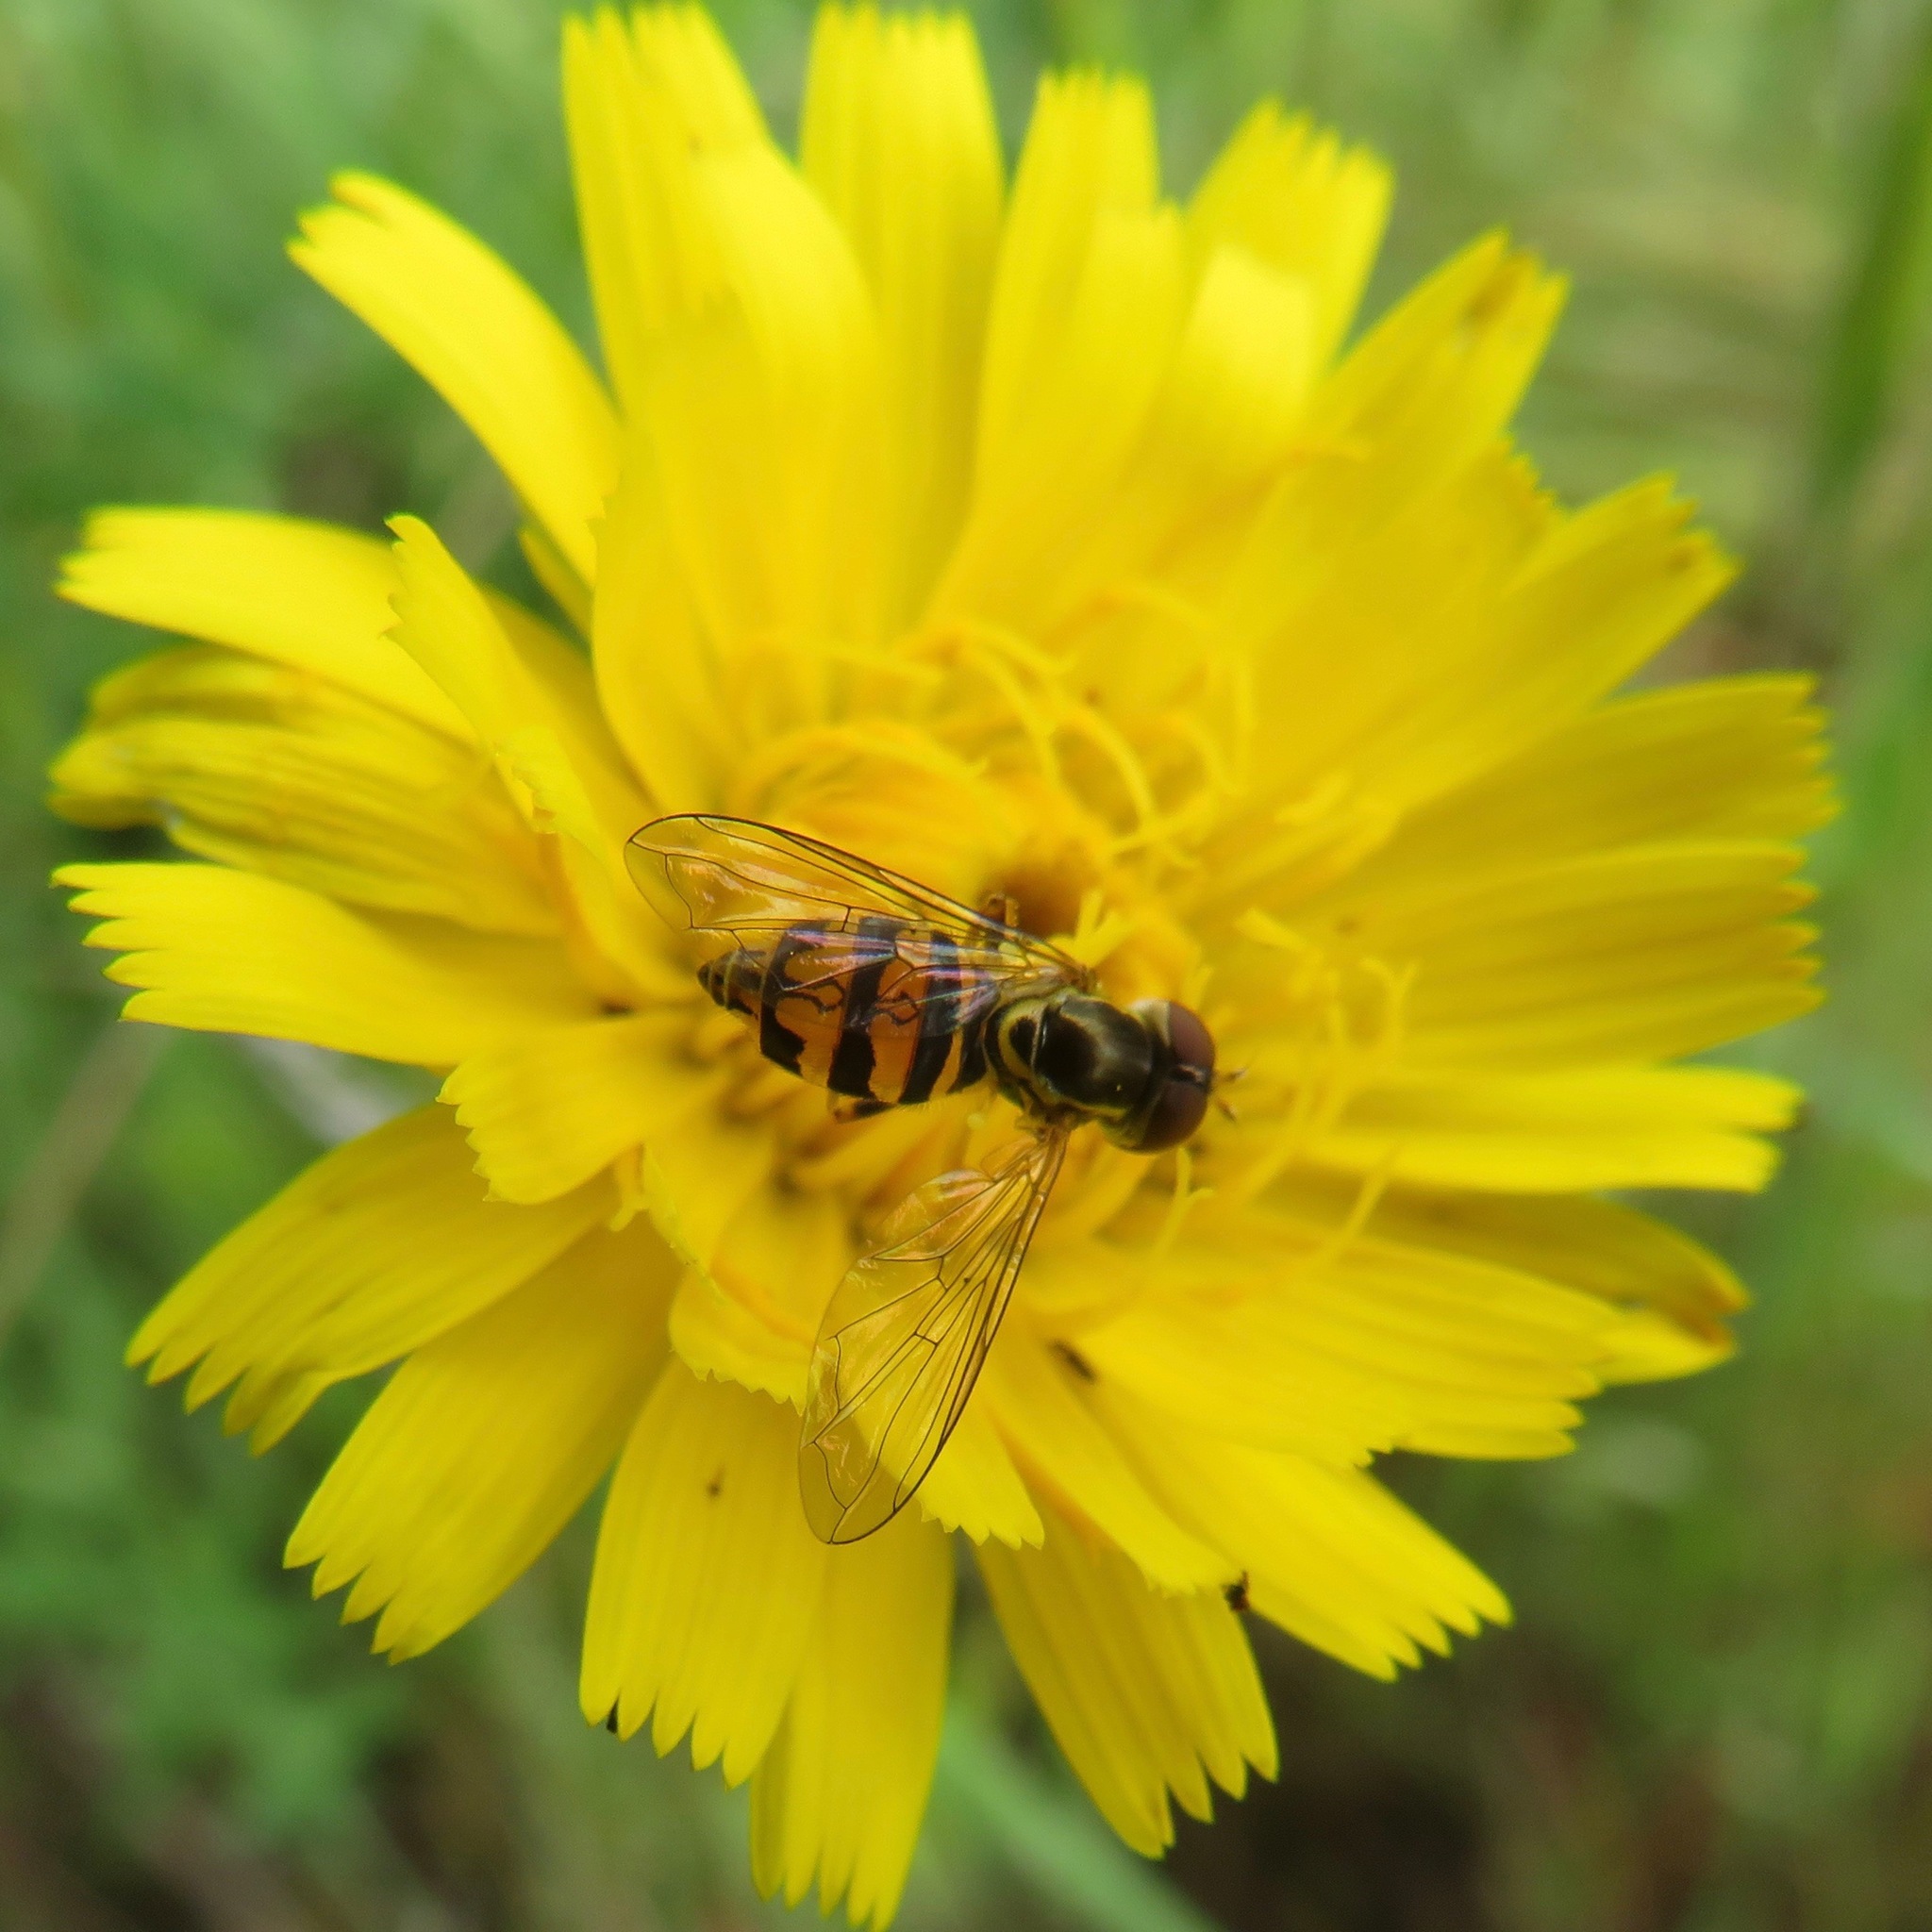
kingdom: Animalia
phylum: Arthropoda
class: Insecta
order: Diptera
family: Syrphidae
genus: Toxomerus
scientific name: Toxomerus occidentalis
